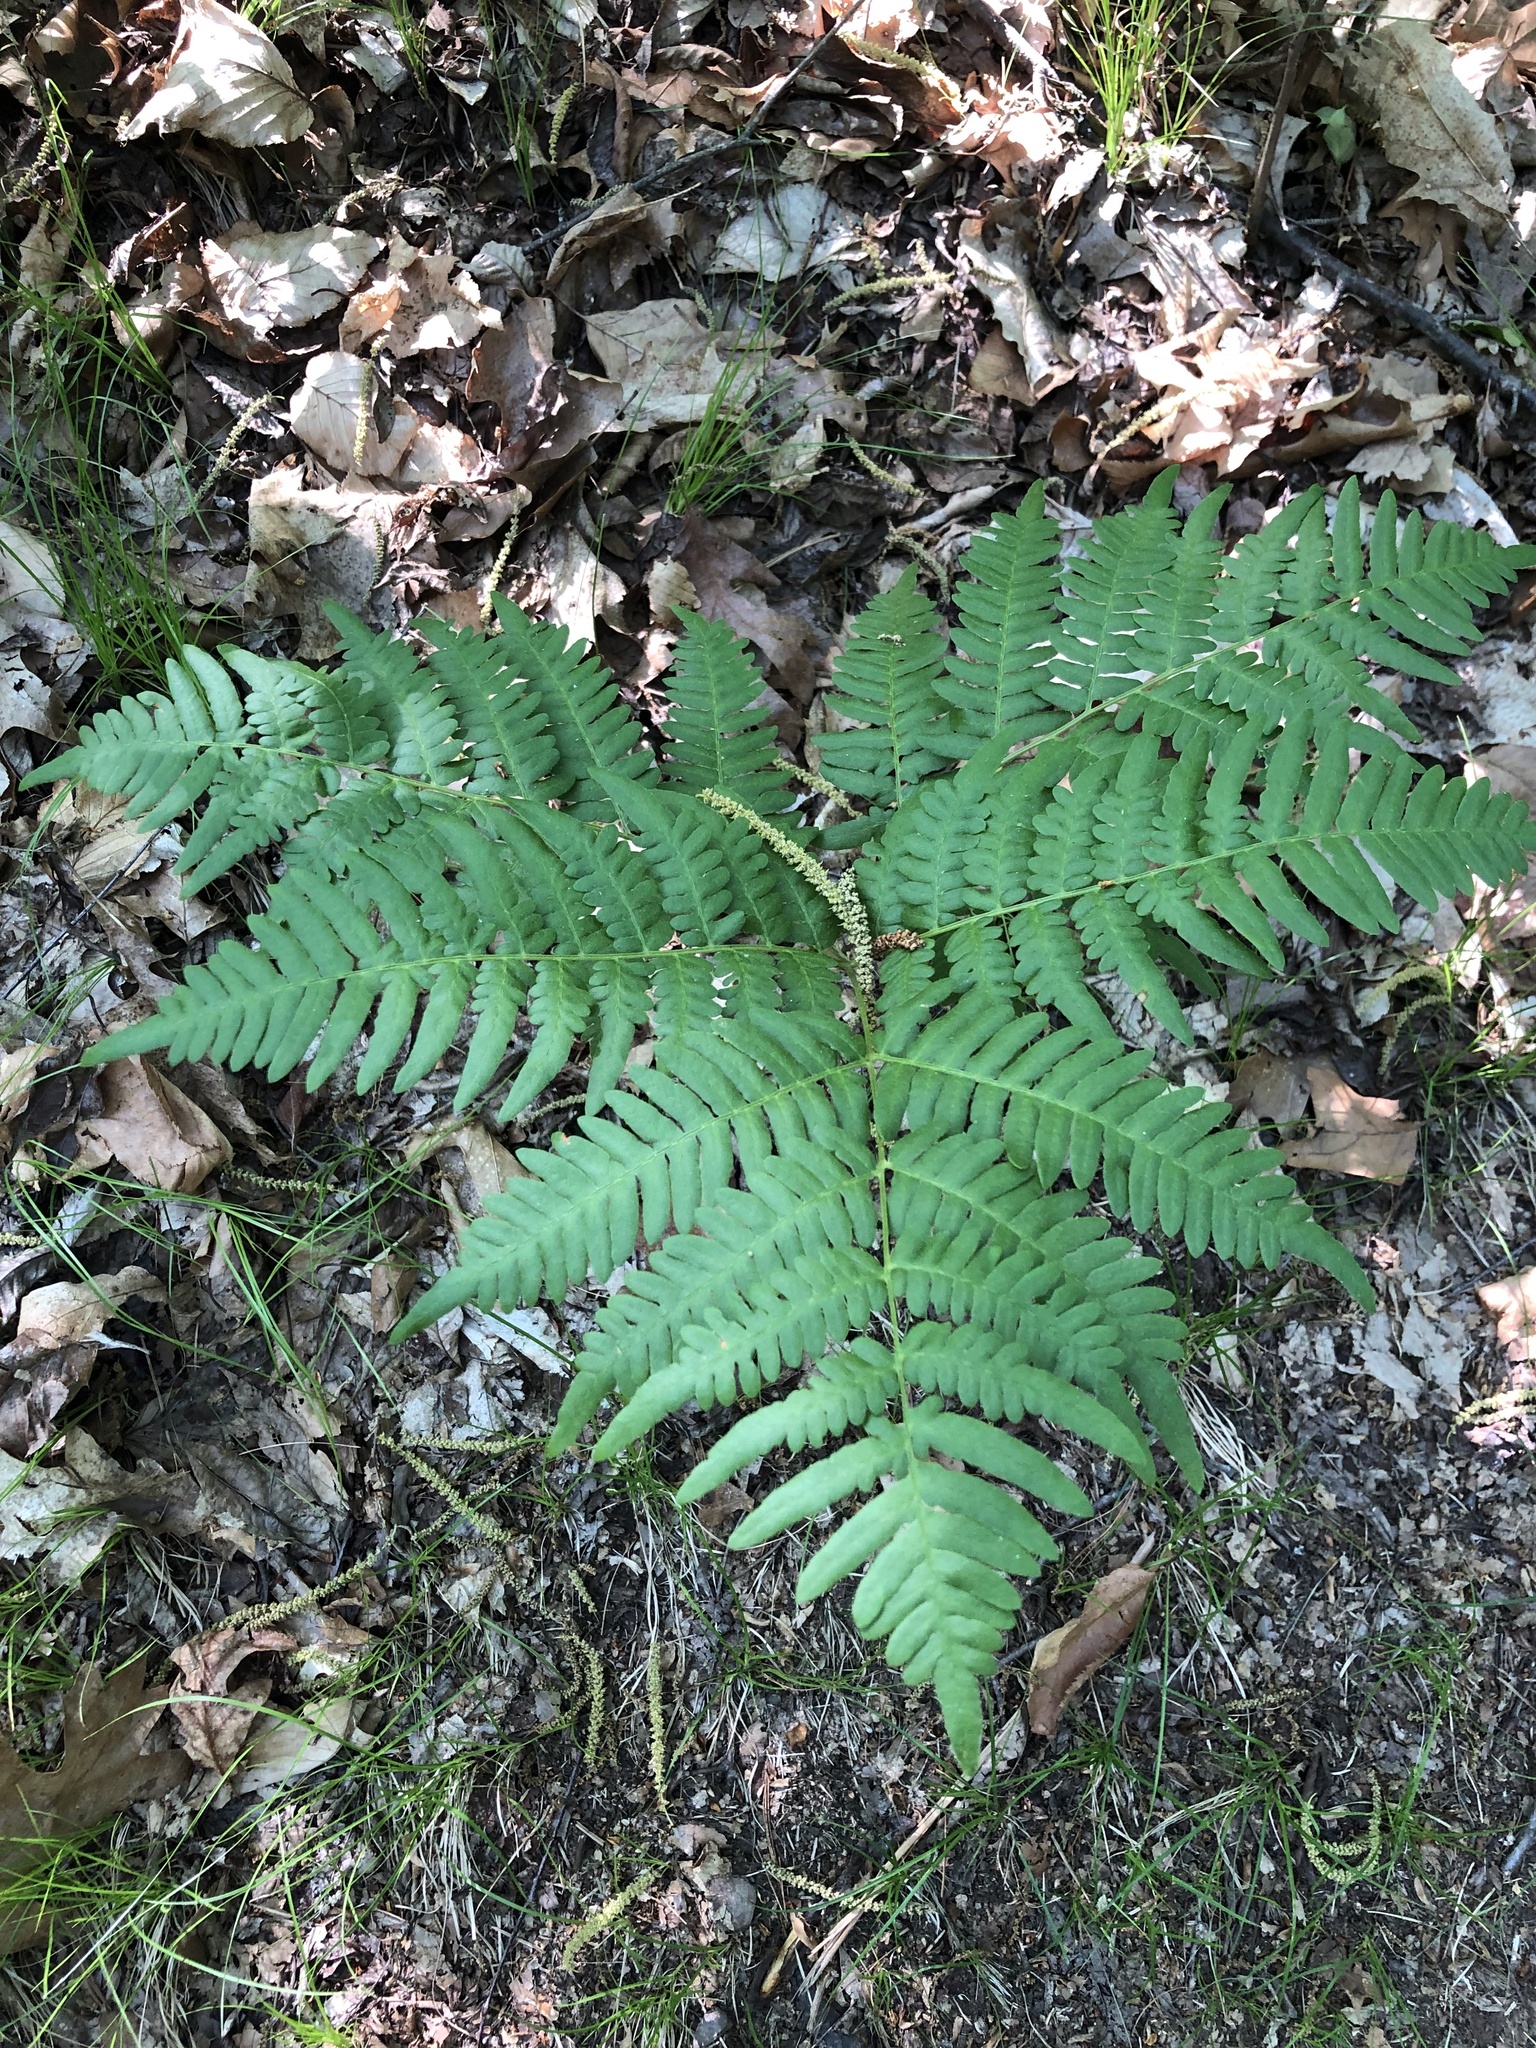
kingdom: Plantae
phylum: Tracheophyta
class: Polypodiopsida
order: Polypodiales
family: Dennstaedtiaceae
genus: Pteridium
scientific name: Pteridium aquilinum
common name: Bracken
